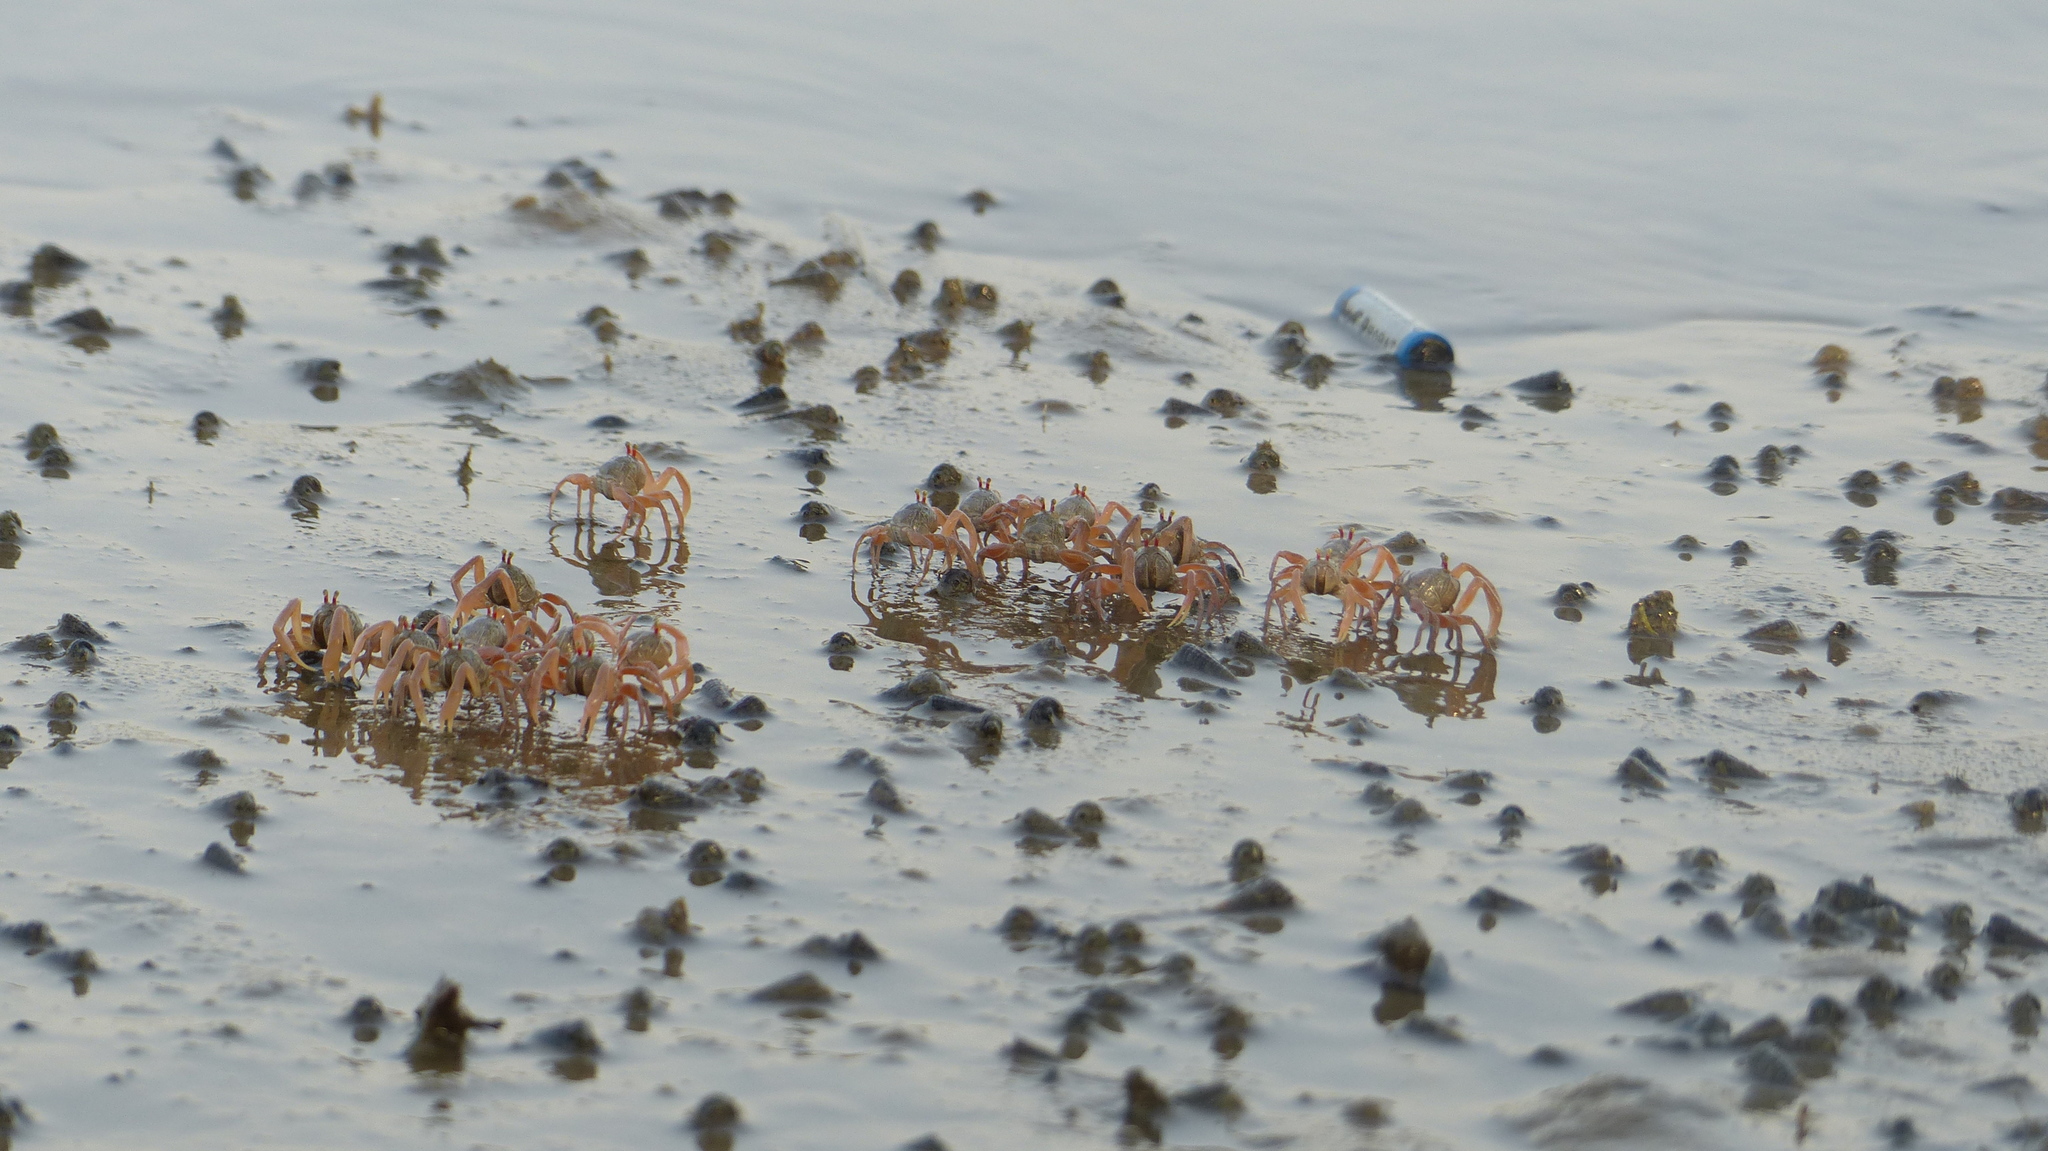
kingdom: Animalia
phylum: Arthropoda
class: Malacostraca
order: Decapoda
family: Dotillidae
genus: Dotilla
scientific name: Dotilla myctiroides
